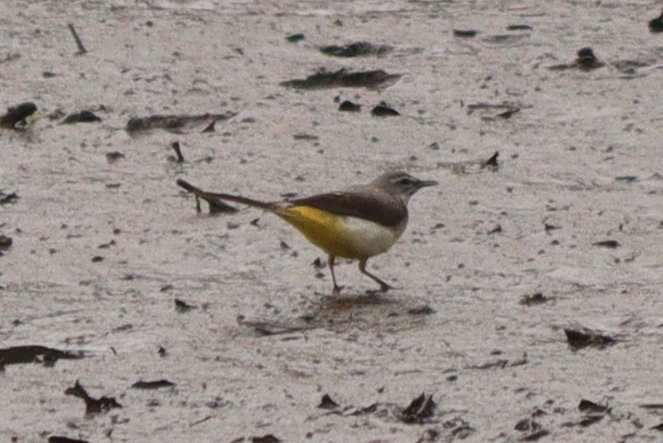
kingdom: Animalia
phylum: Chordata
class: Aves
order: Passeriformes
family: Motacillidae
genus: Motacilla
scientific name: Motacilla cinerea
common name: Grey wagtail
